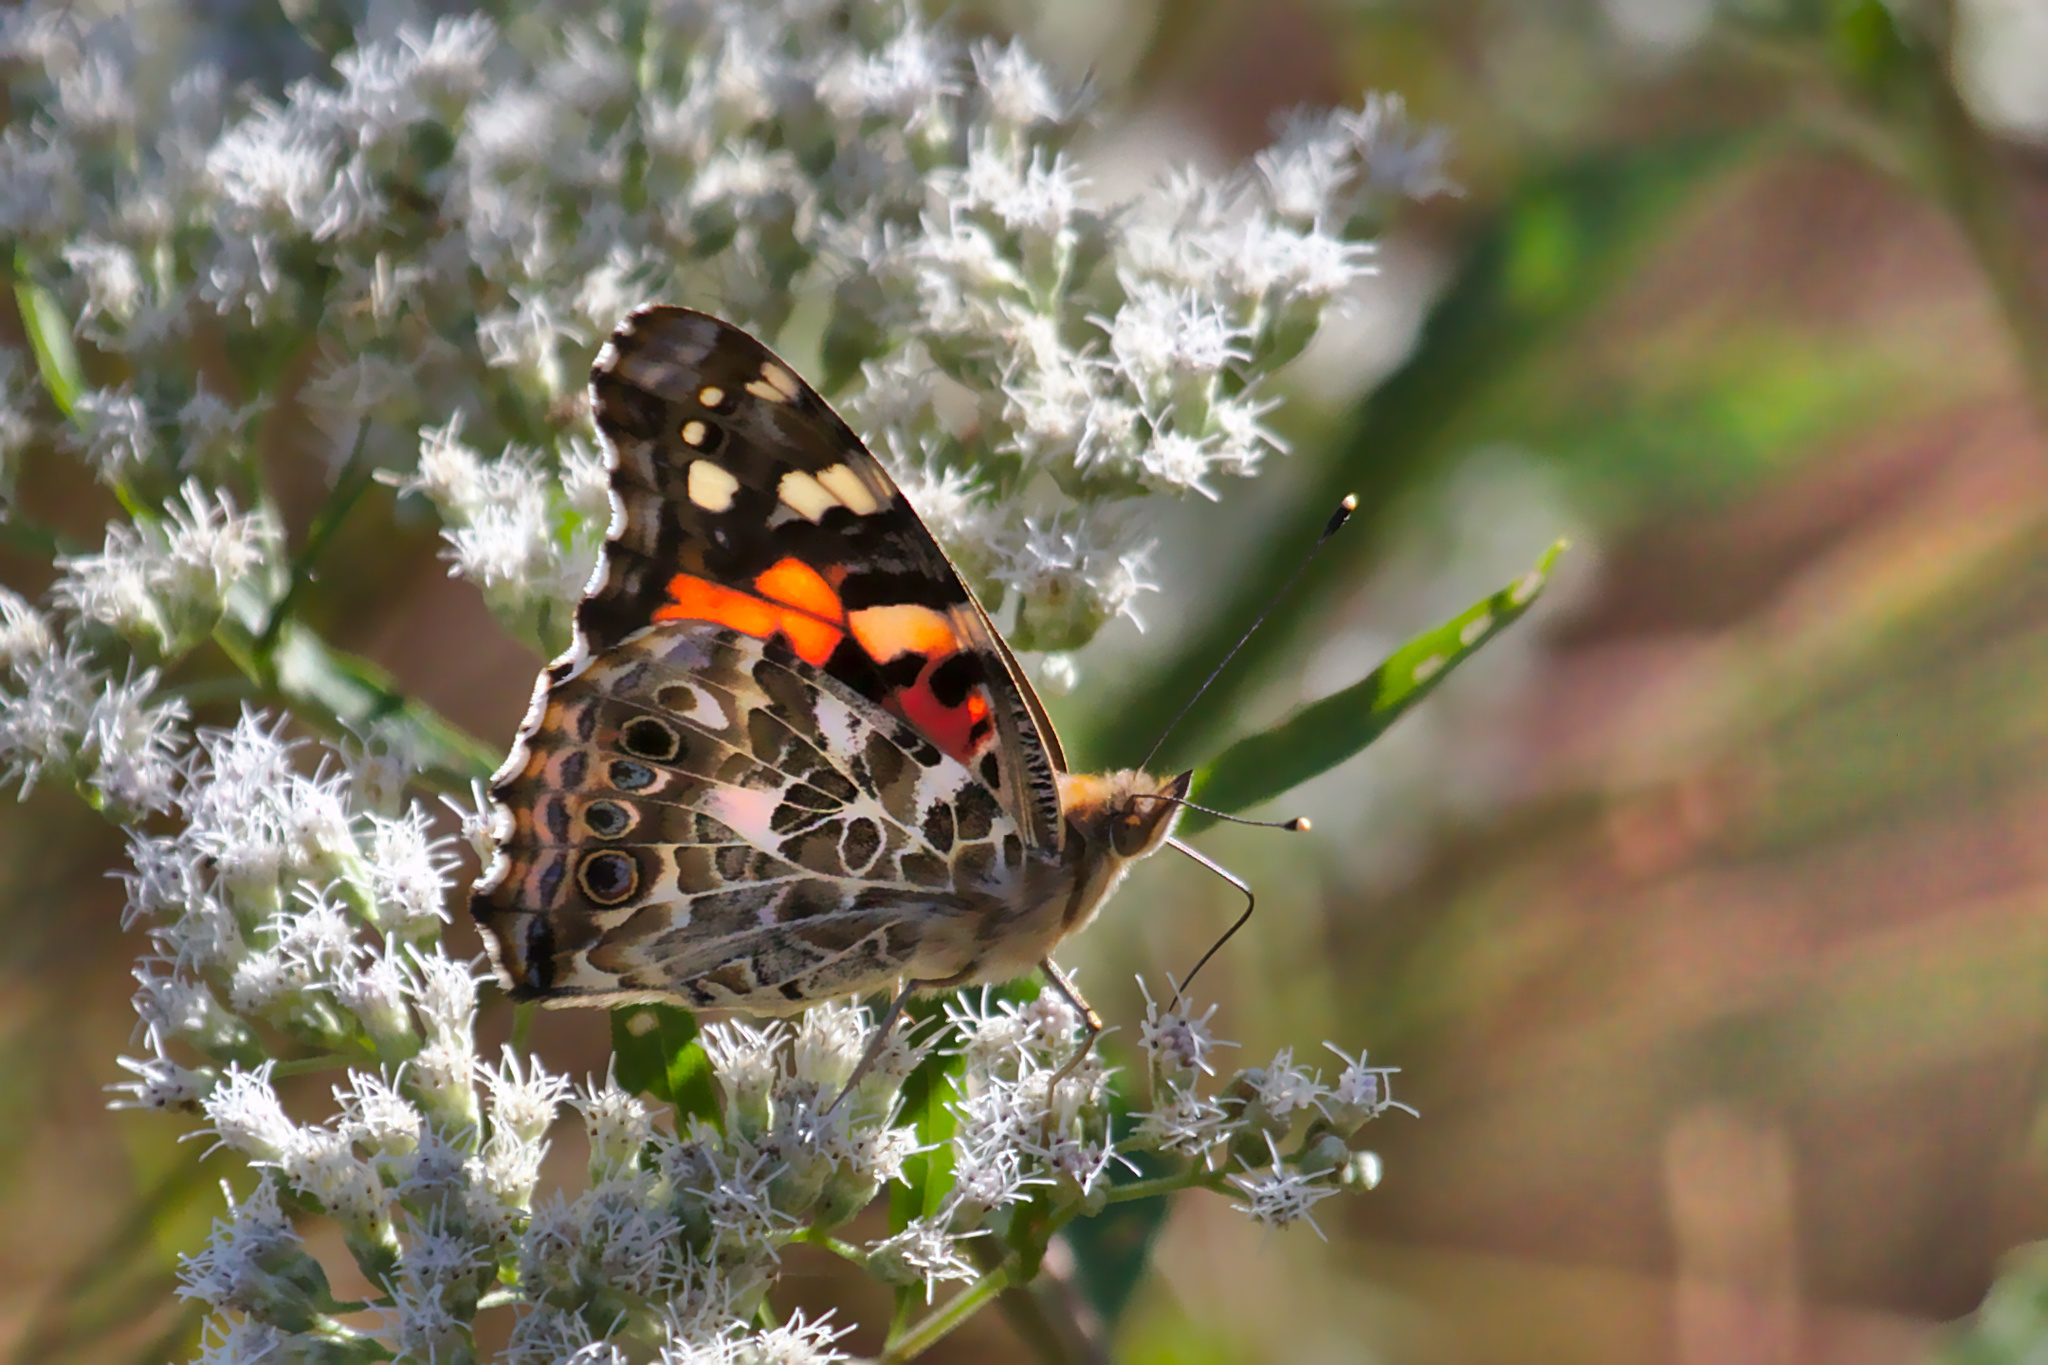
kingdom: Animalia
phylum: Arthropoda
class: Insecta
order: Lepidoptera
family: Nymphalidae
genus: Vanessa
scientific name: Vanessa cardui
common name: Painted lady
